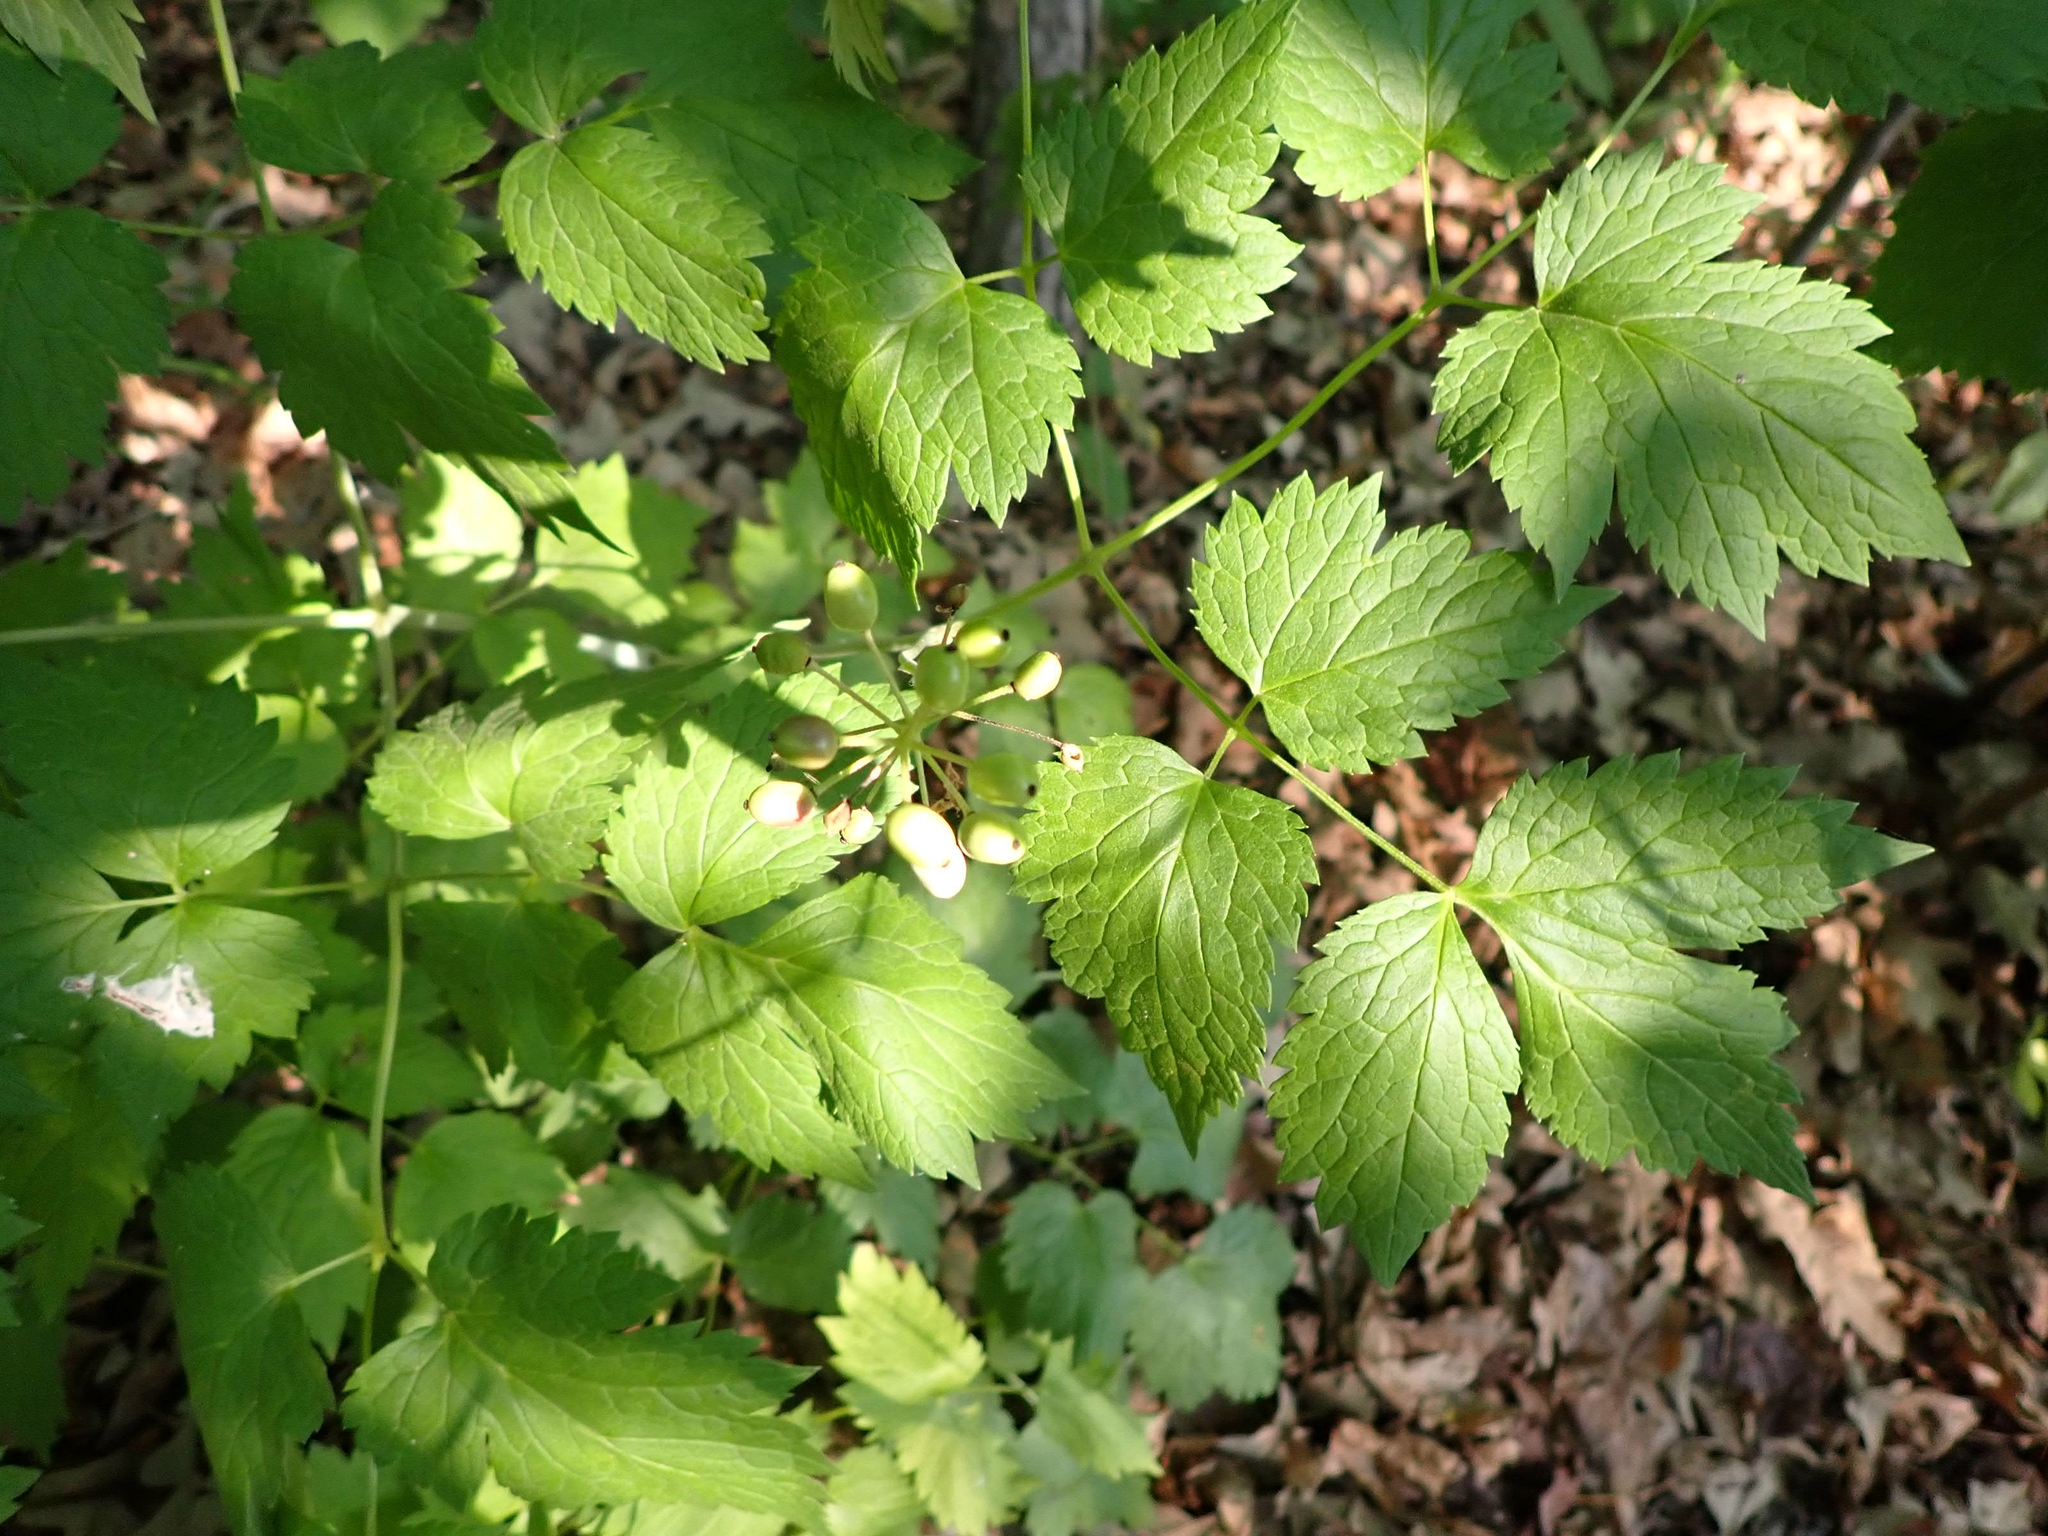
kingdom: Plantae
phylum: Tracheophyta
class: Magnoliopsida
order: Ranunculales
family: Ranunculaceae
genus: Actaea
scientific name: Actaea rubra
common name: Red baneberry
